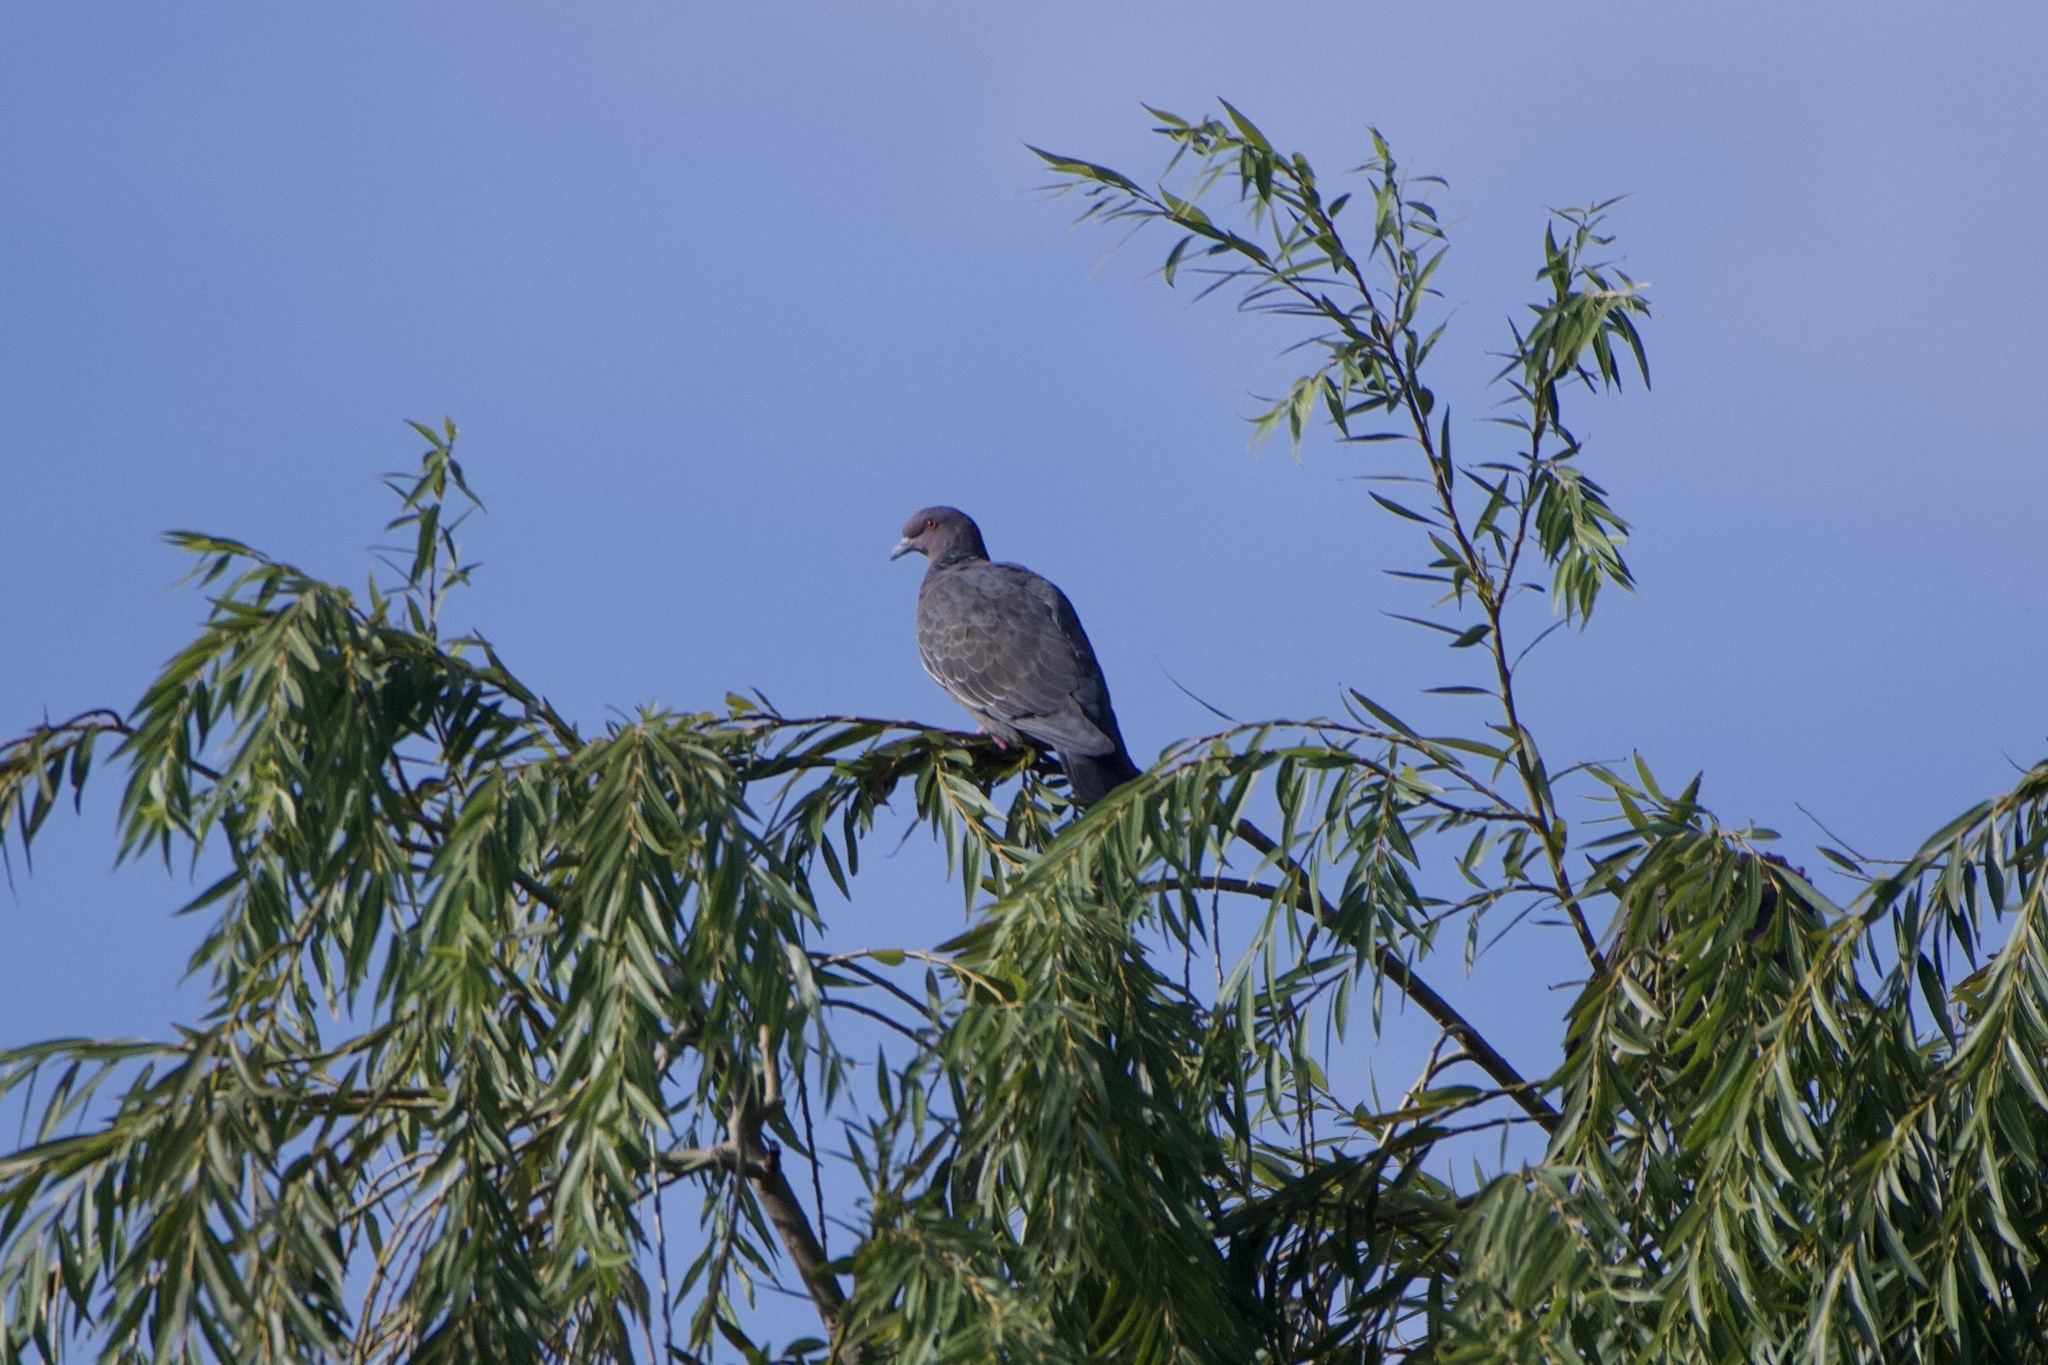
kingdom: Animalia
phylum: Chordata
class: Aves
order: Columbiformes
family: Columbidae
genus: Patagioenas
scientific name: Patagioenas picazuro
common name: Picazuro pigeon
